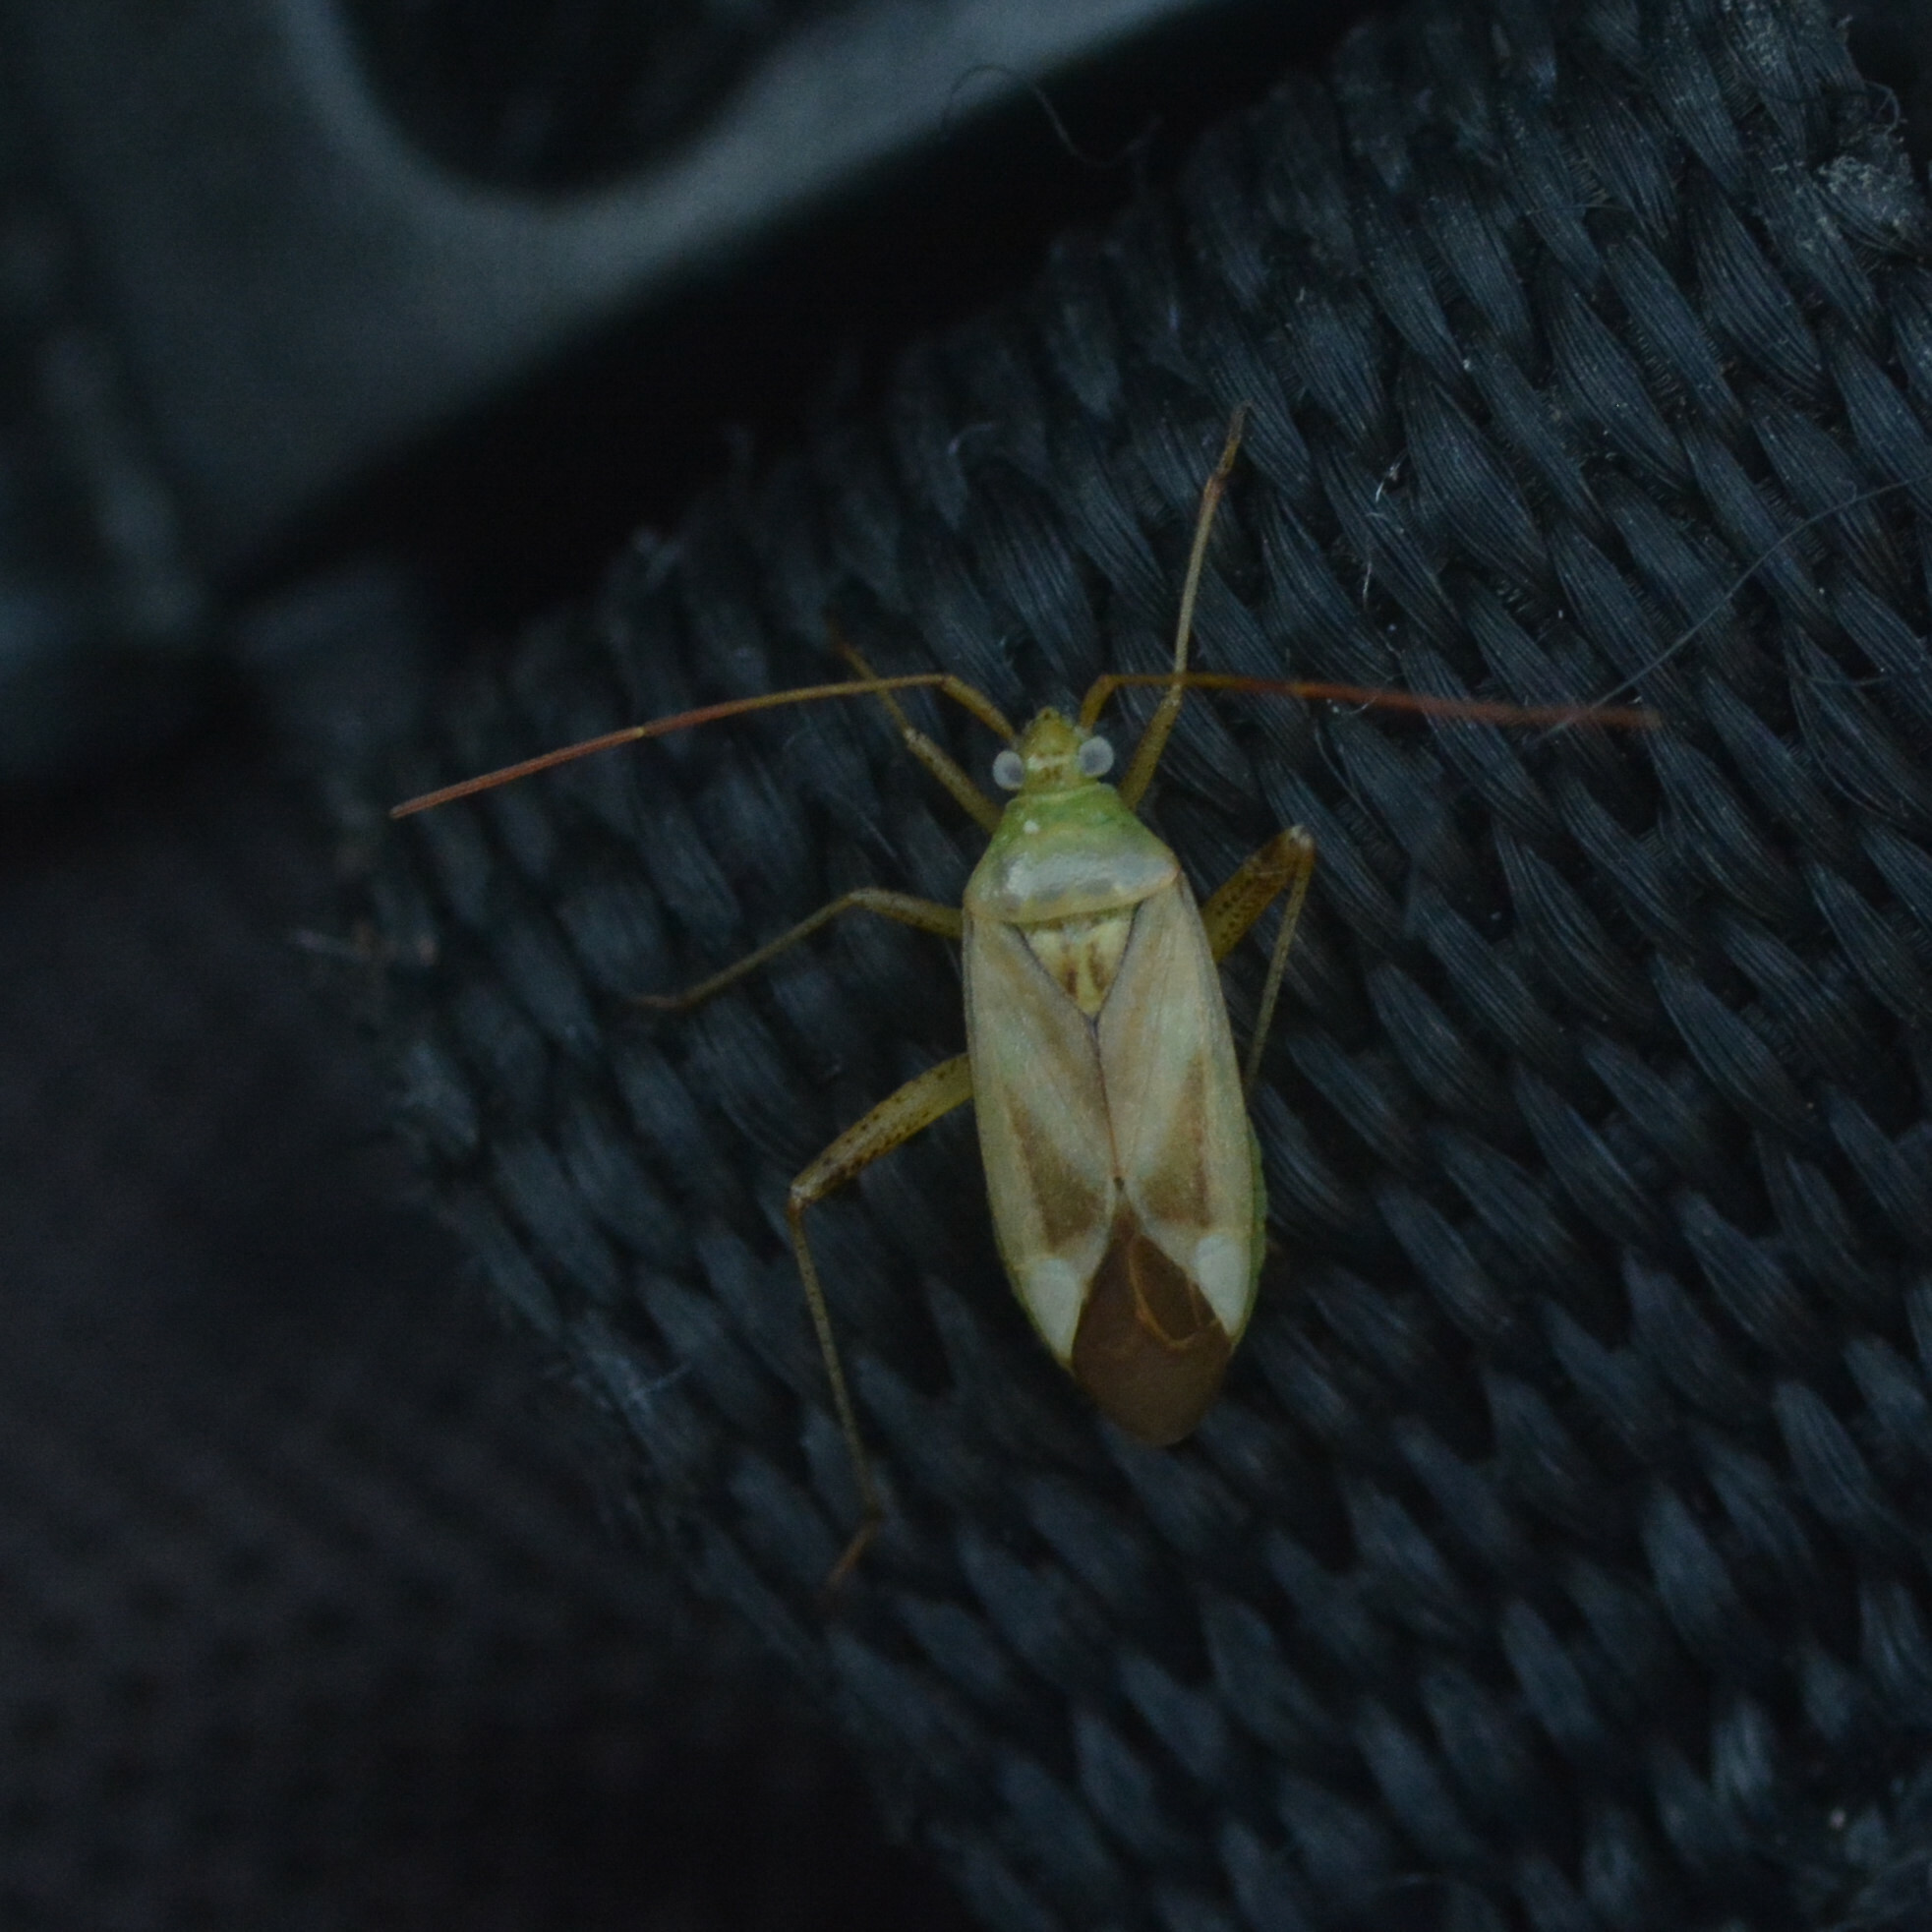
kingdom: Animalia
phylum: Arthropoda
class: Insecta
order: Hemiptera
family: Miridae
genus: Adelphocoris
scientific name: Adelphocoris lineolatus
